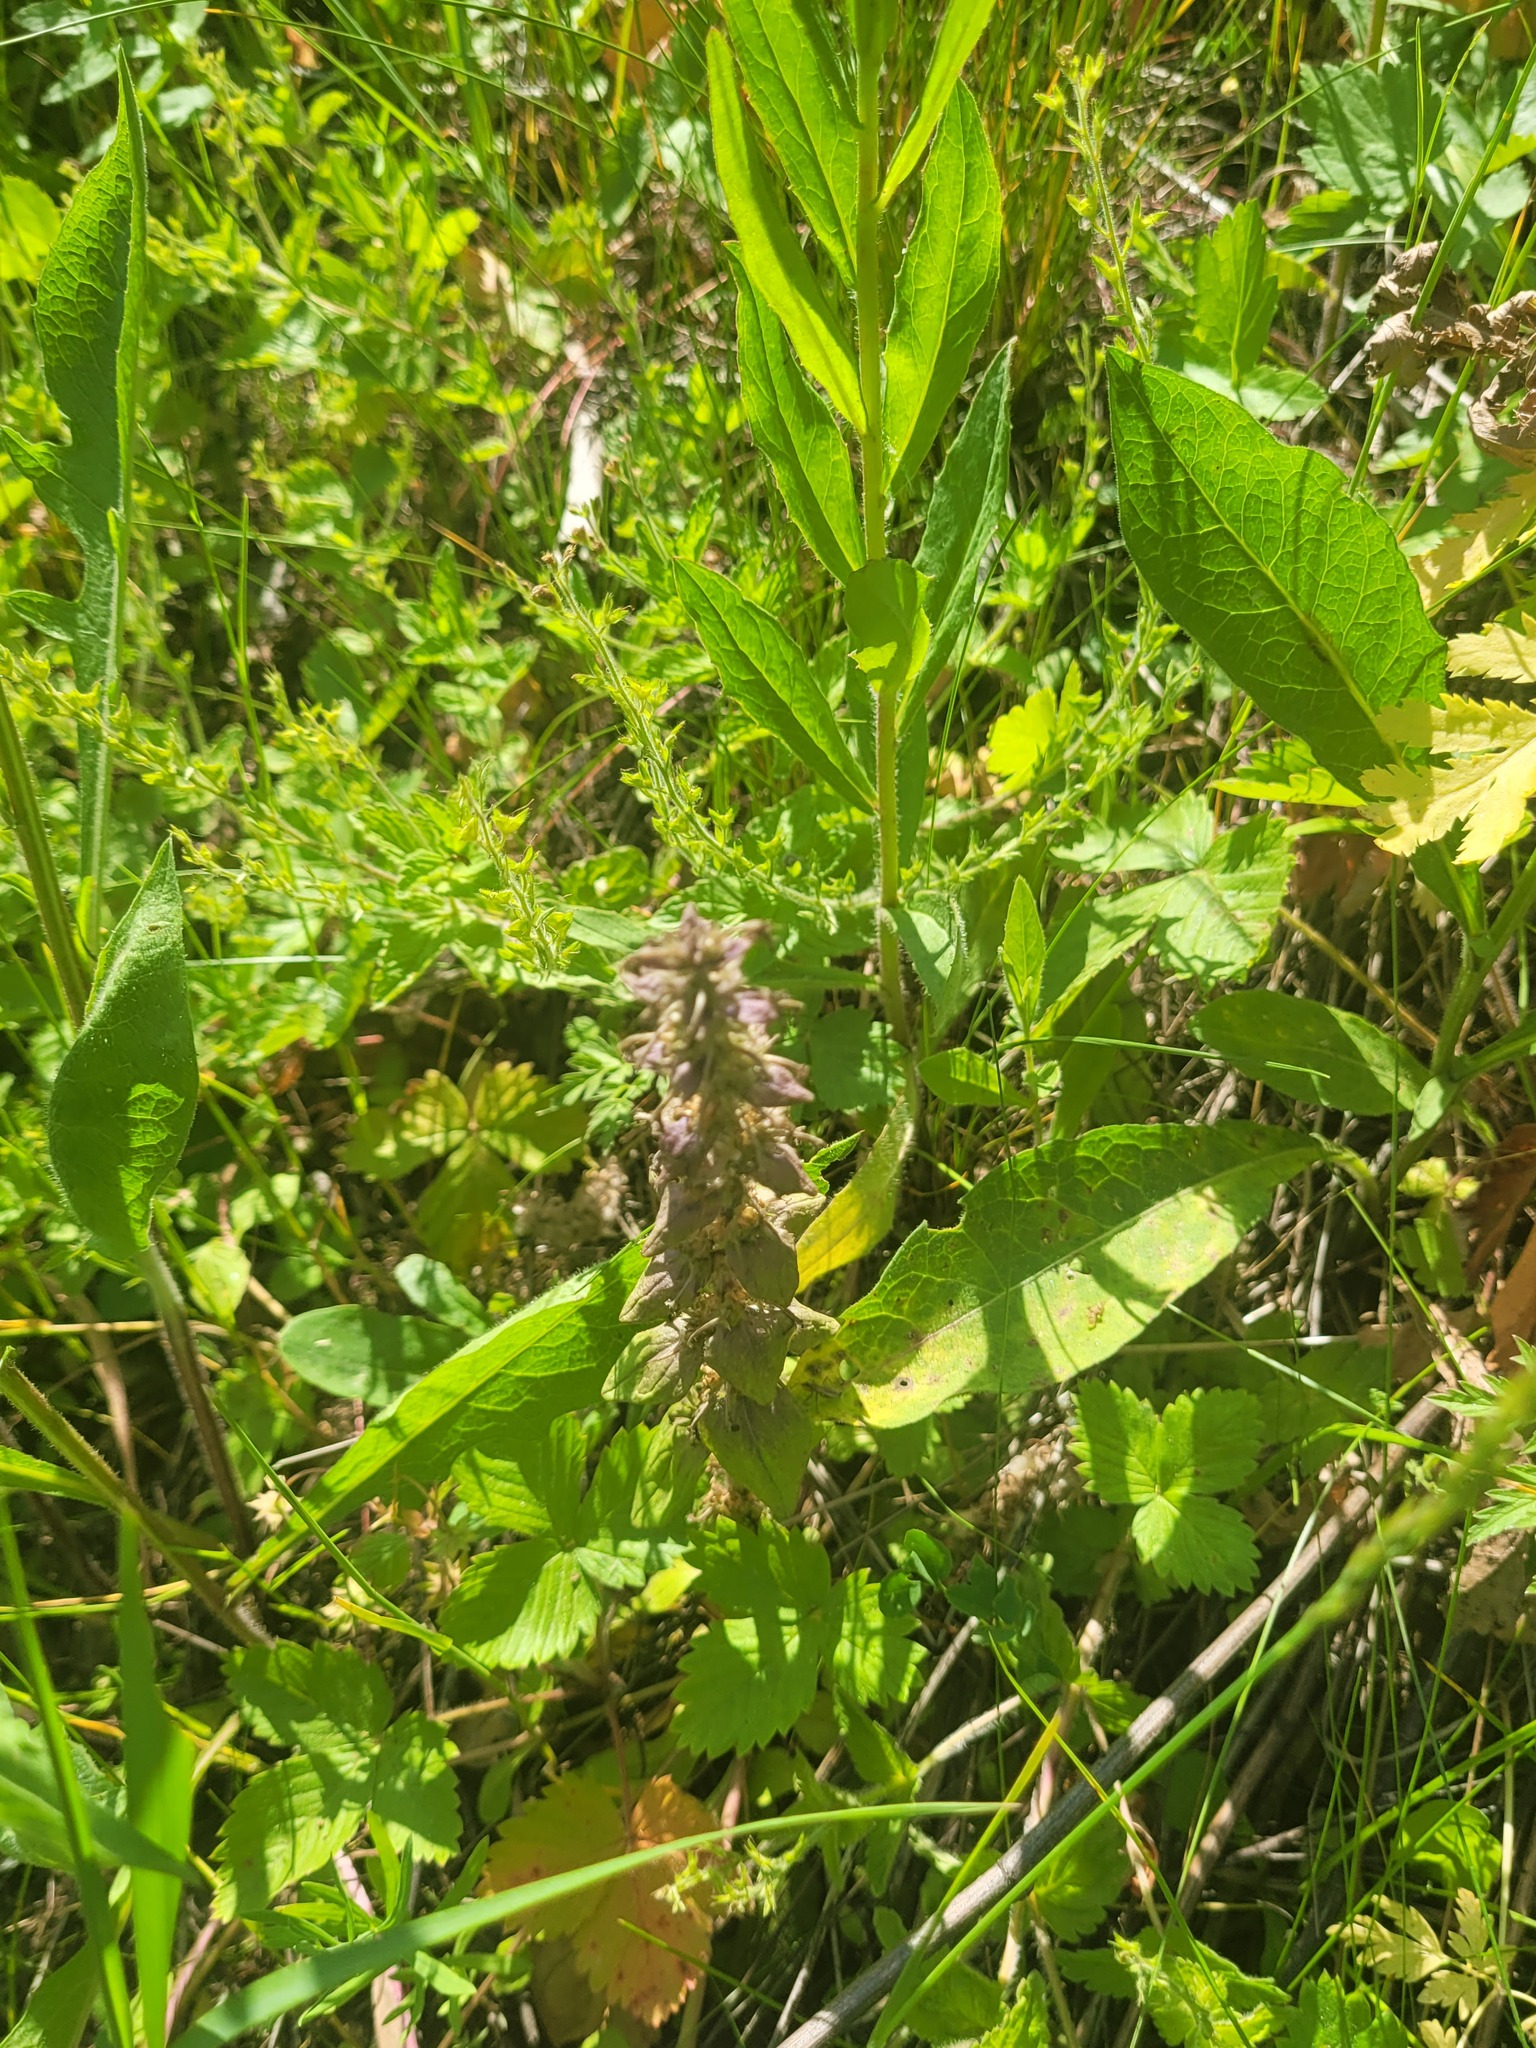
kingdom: Plantae
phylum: Tracheophyta
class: Magnoliopsida
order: Lamiales
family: Lamiaceae
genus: Ajuga
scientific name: Ajuga reptans
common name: Bugle
